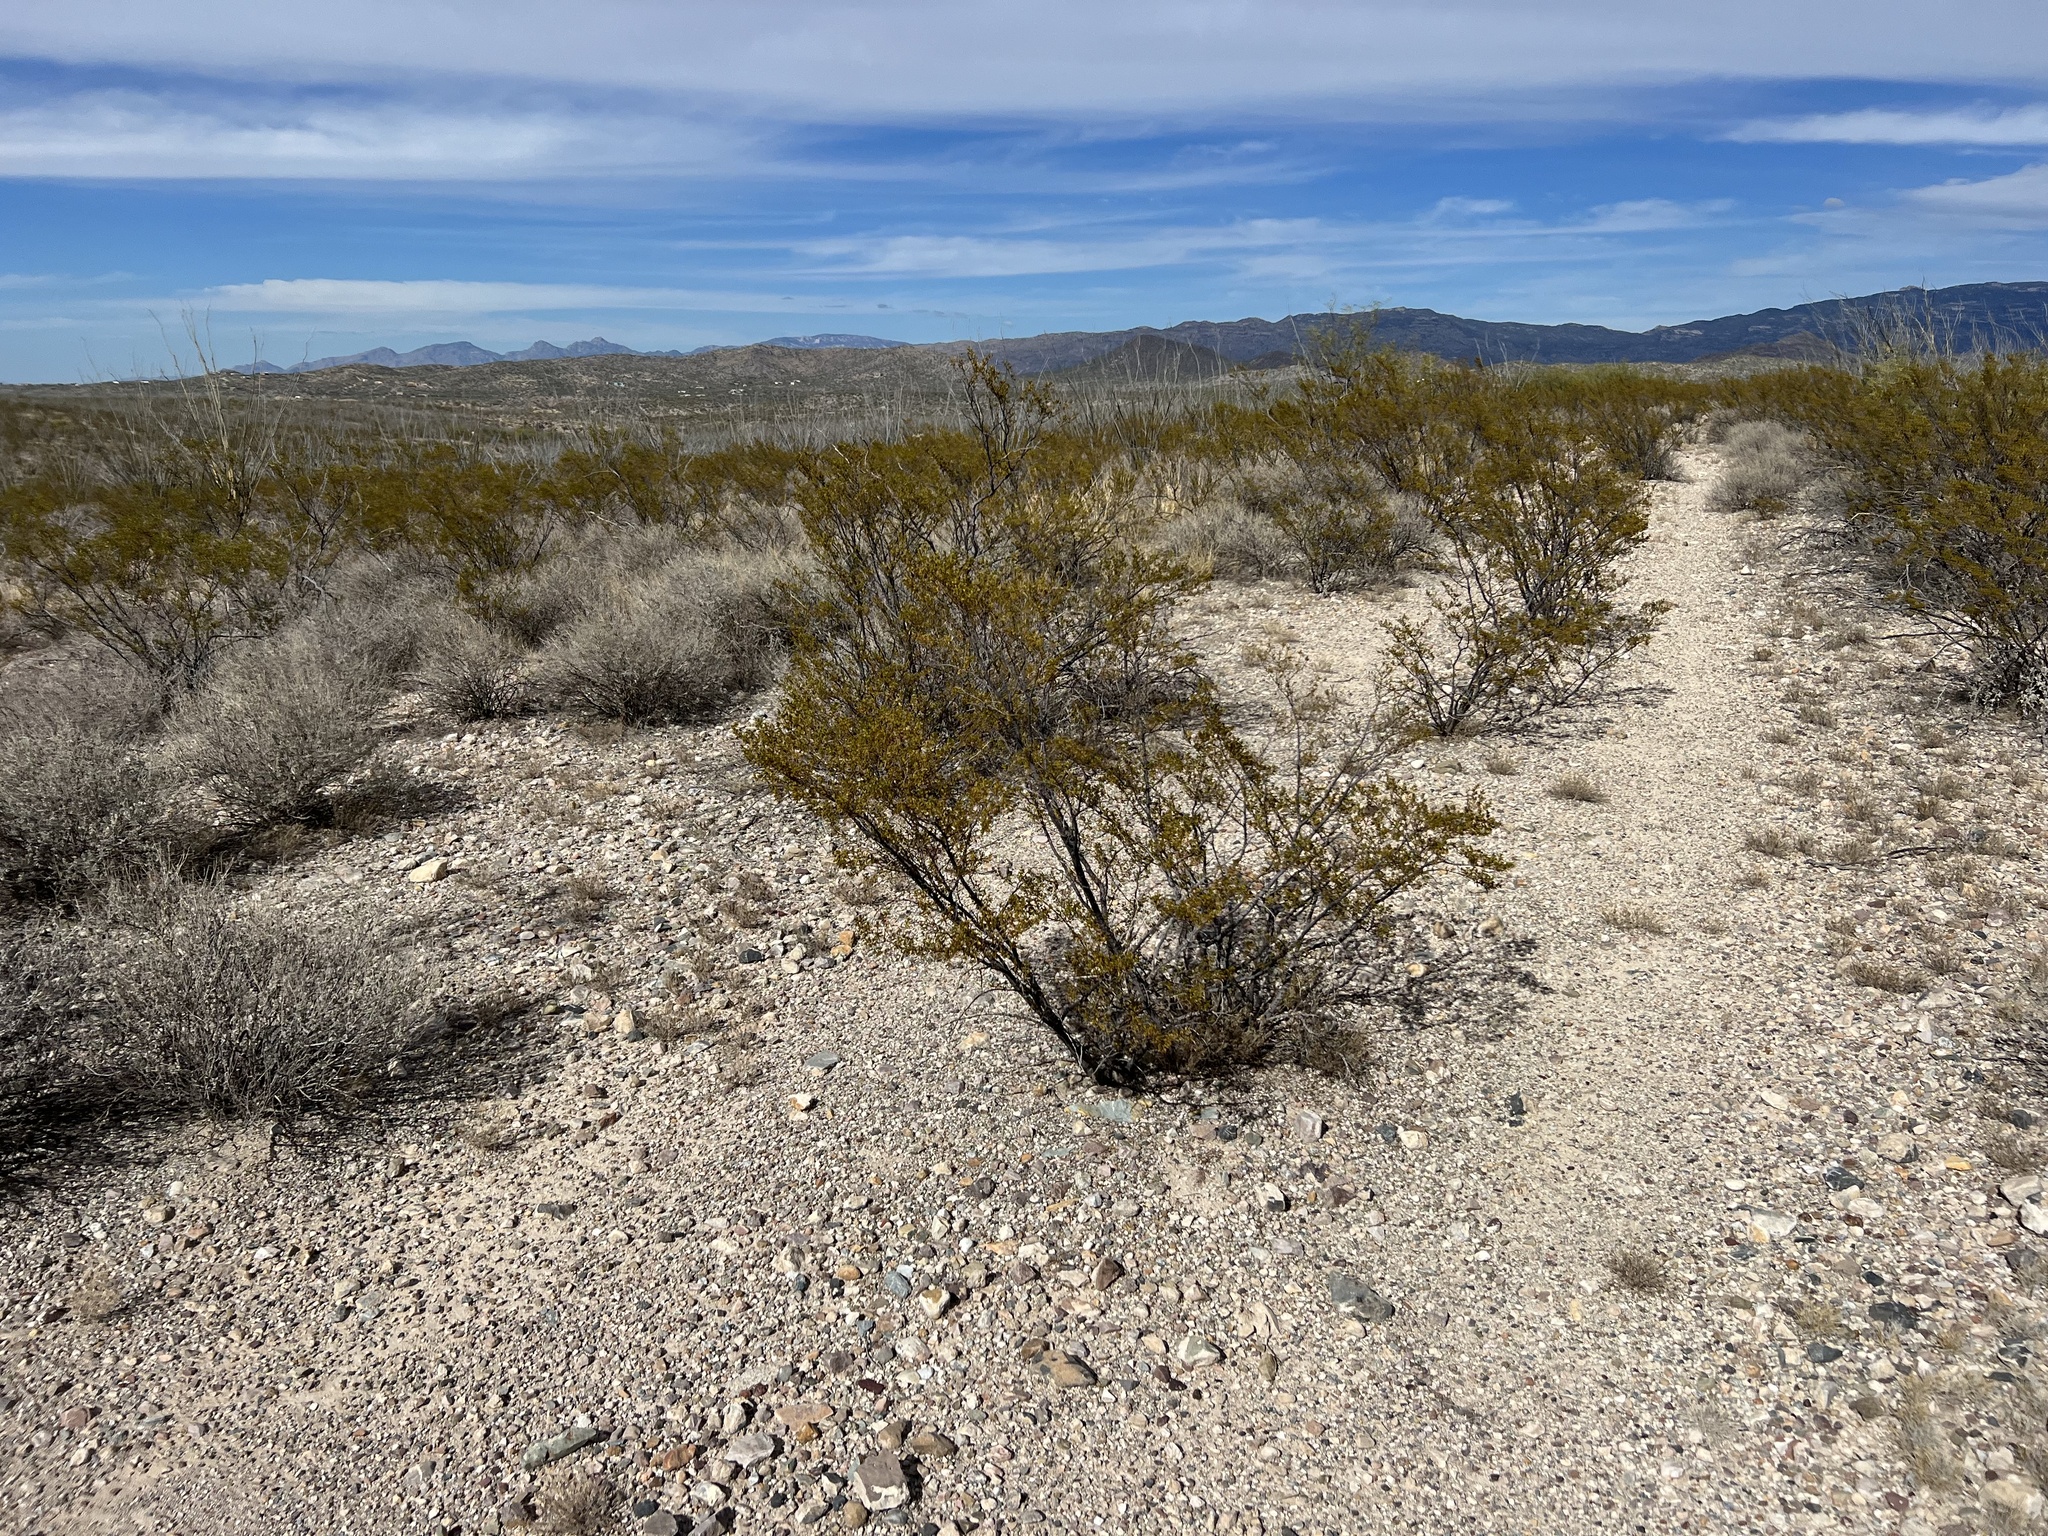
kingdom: Plantae
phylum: Tracheophyta
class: Magnoliopsida
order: Zygophyllales
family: Zygophyllaceae
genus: Larrea
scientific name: Larrea tridentata
